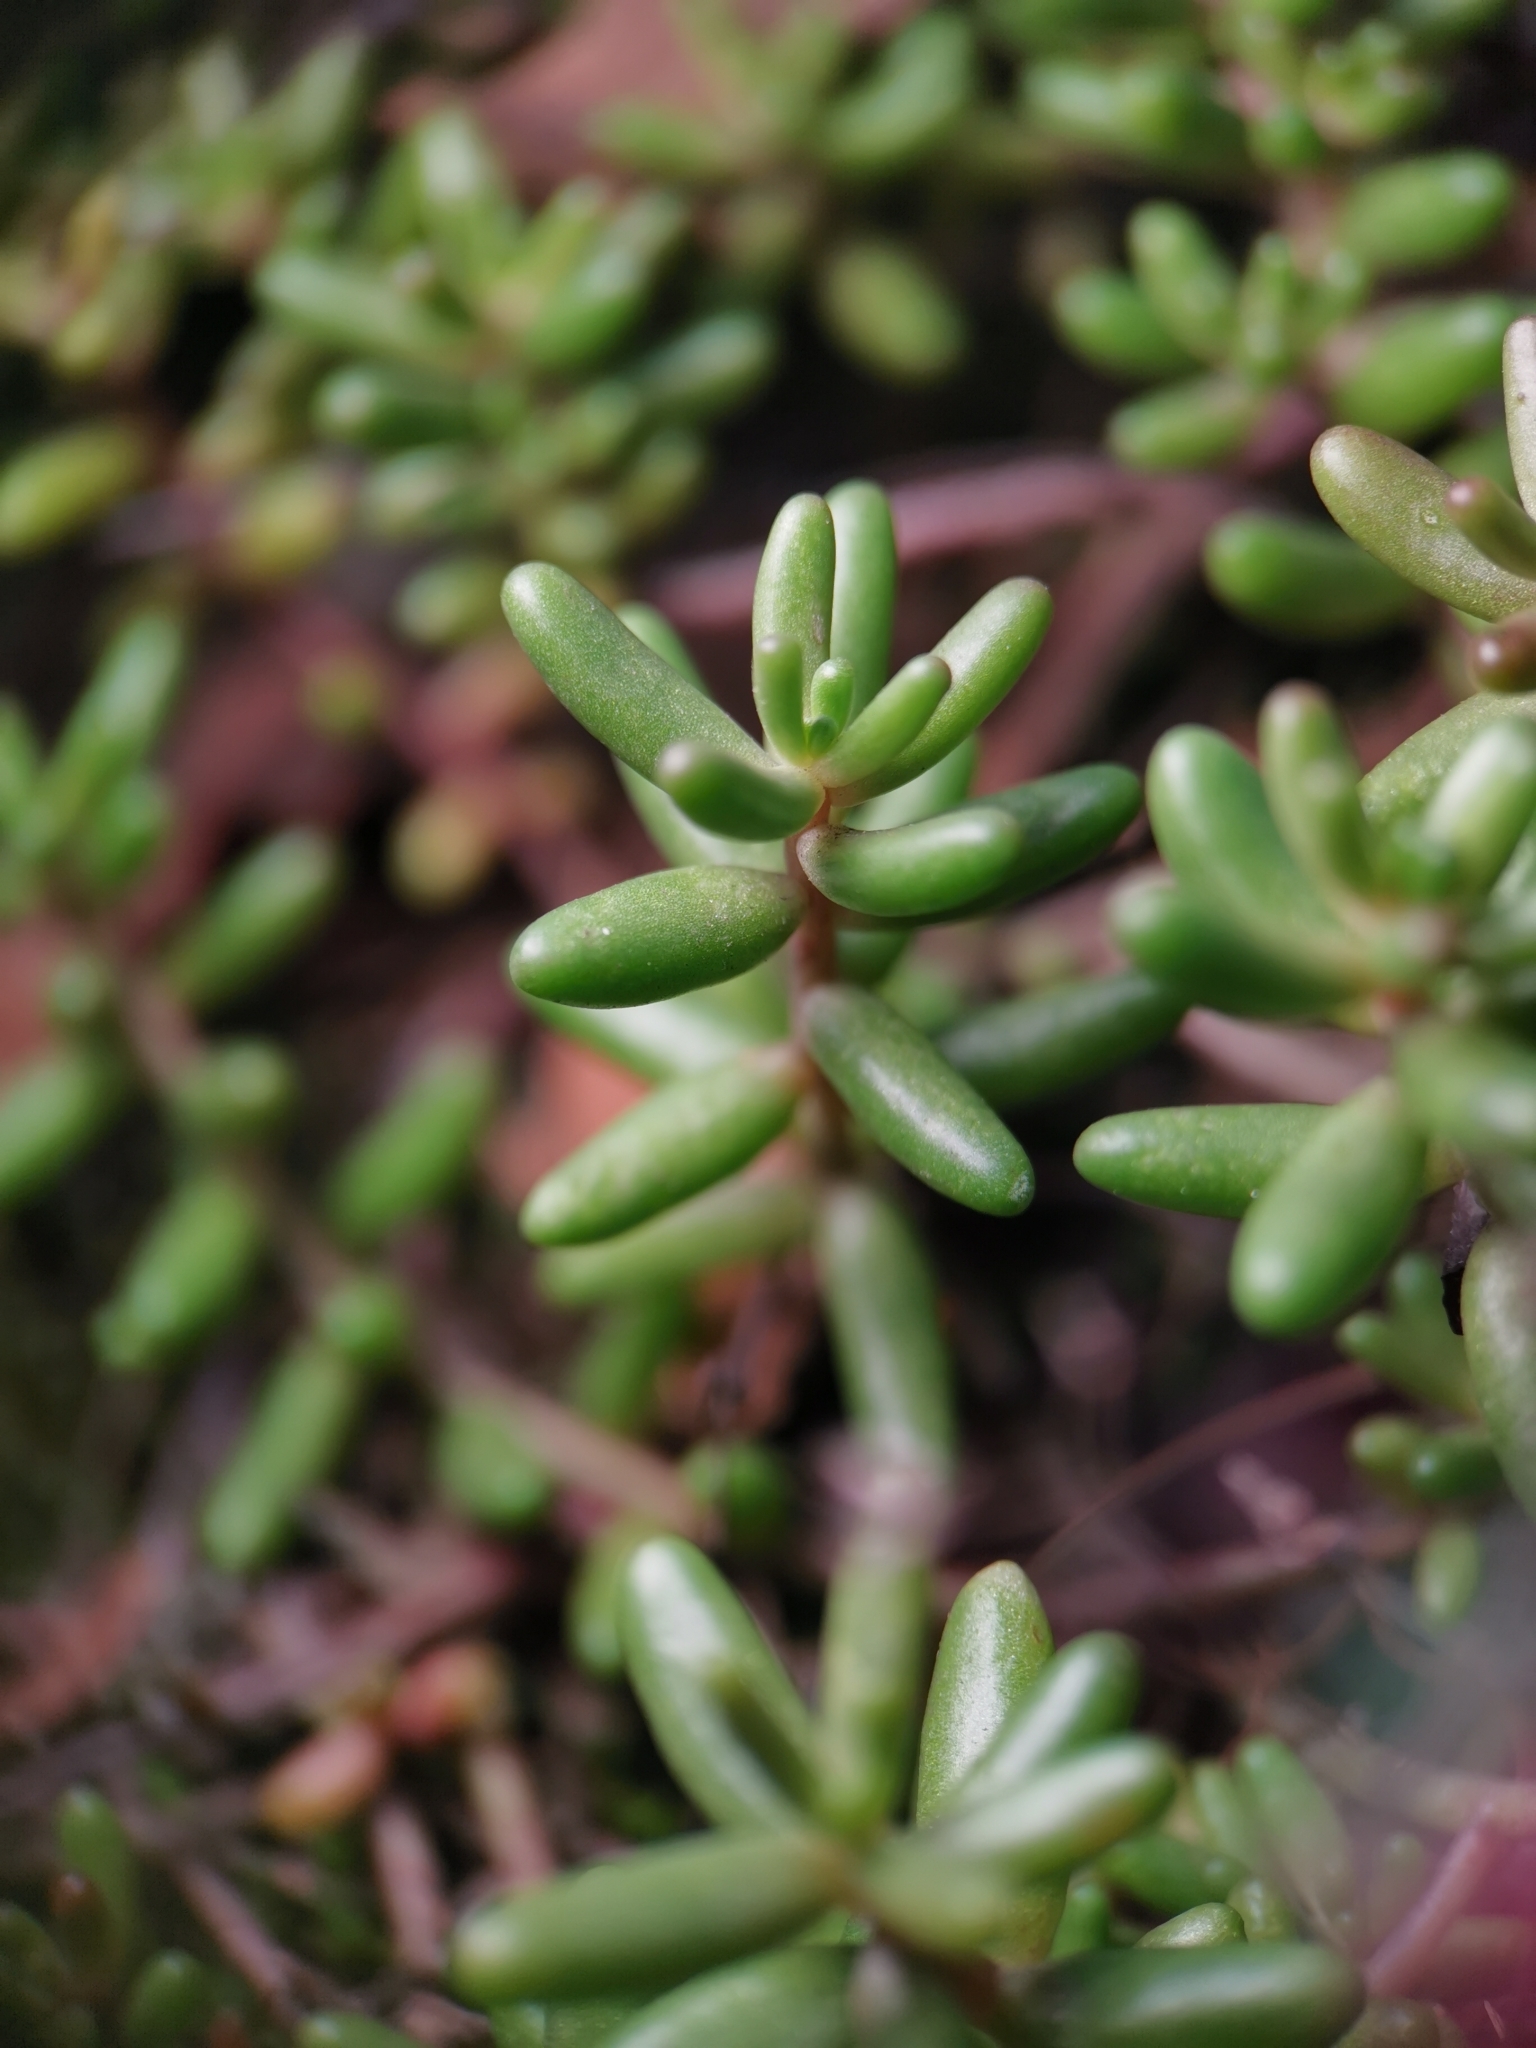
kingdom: Plantae
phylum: Tracheophyta
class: Magnoliopsida
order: Saxifragales
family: Crassulaceae
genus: Sedum
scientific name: Sedum album
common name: White stonecrop
